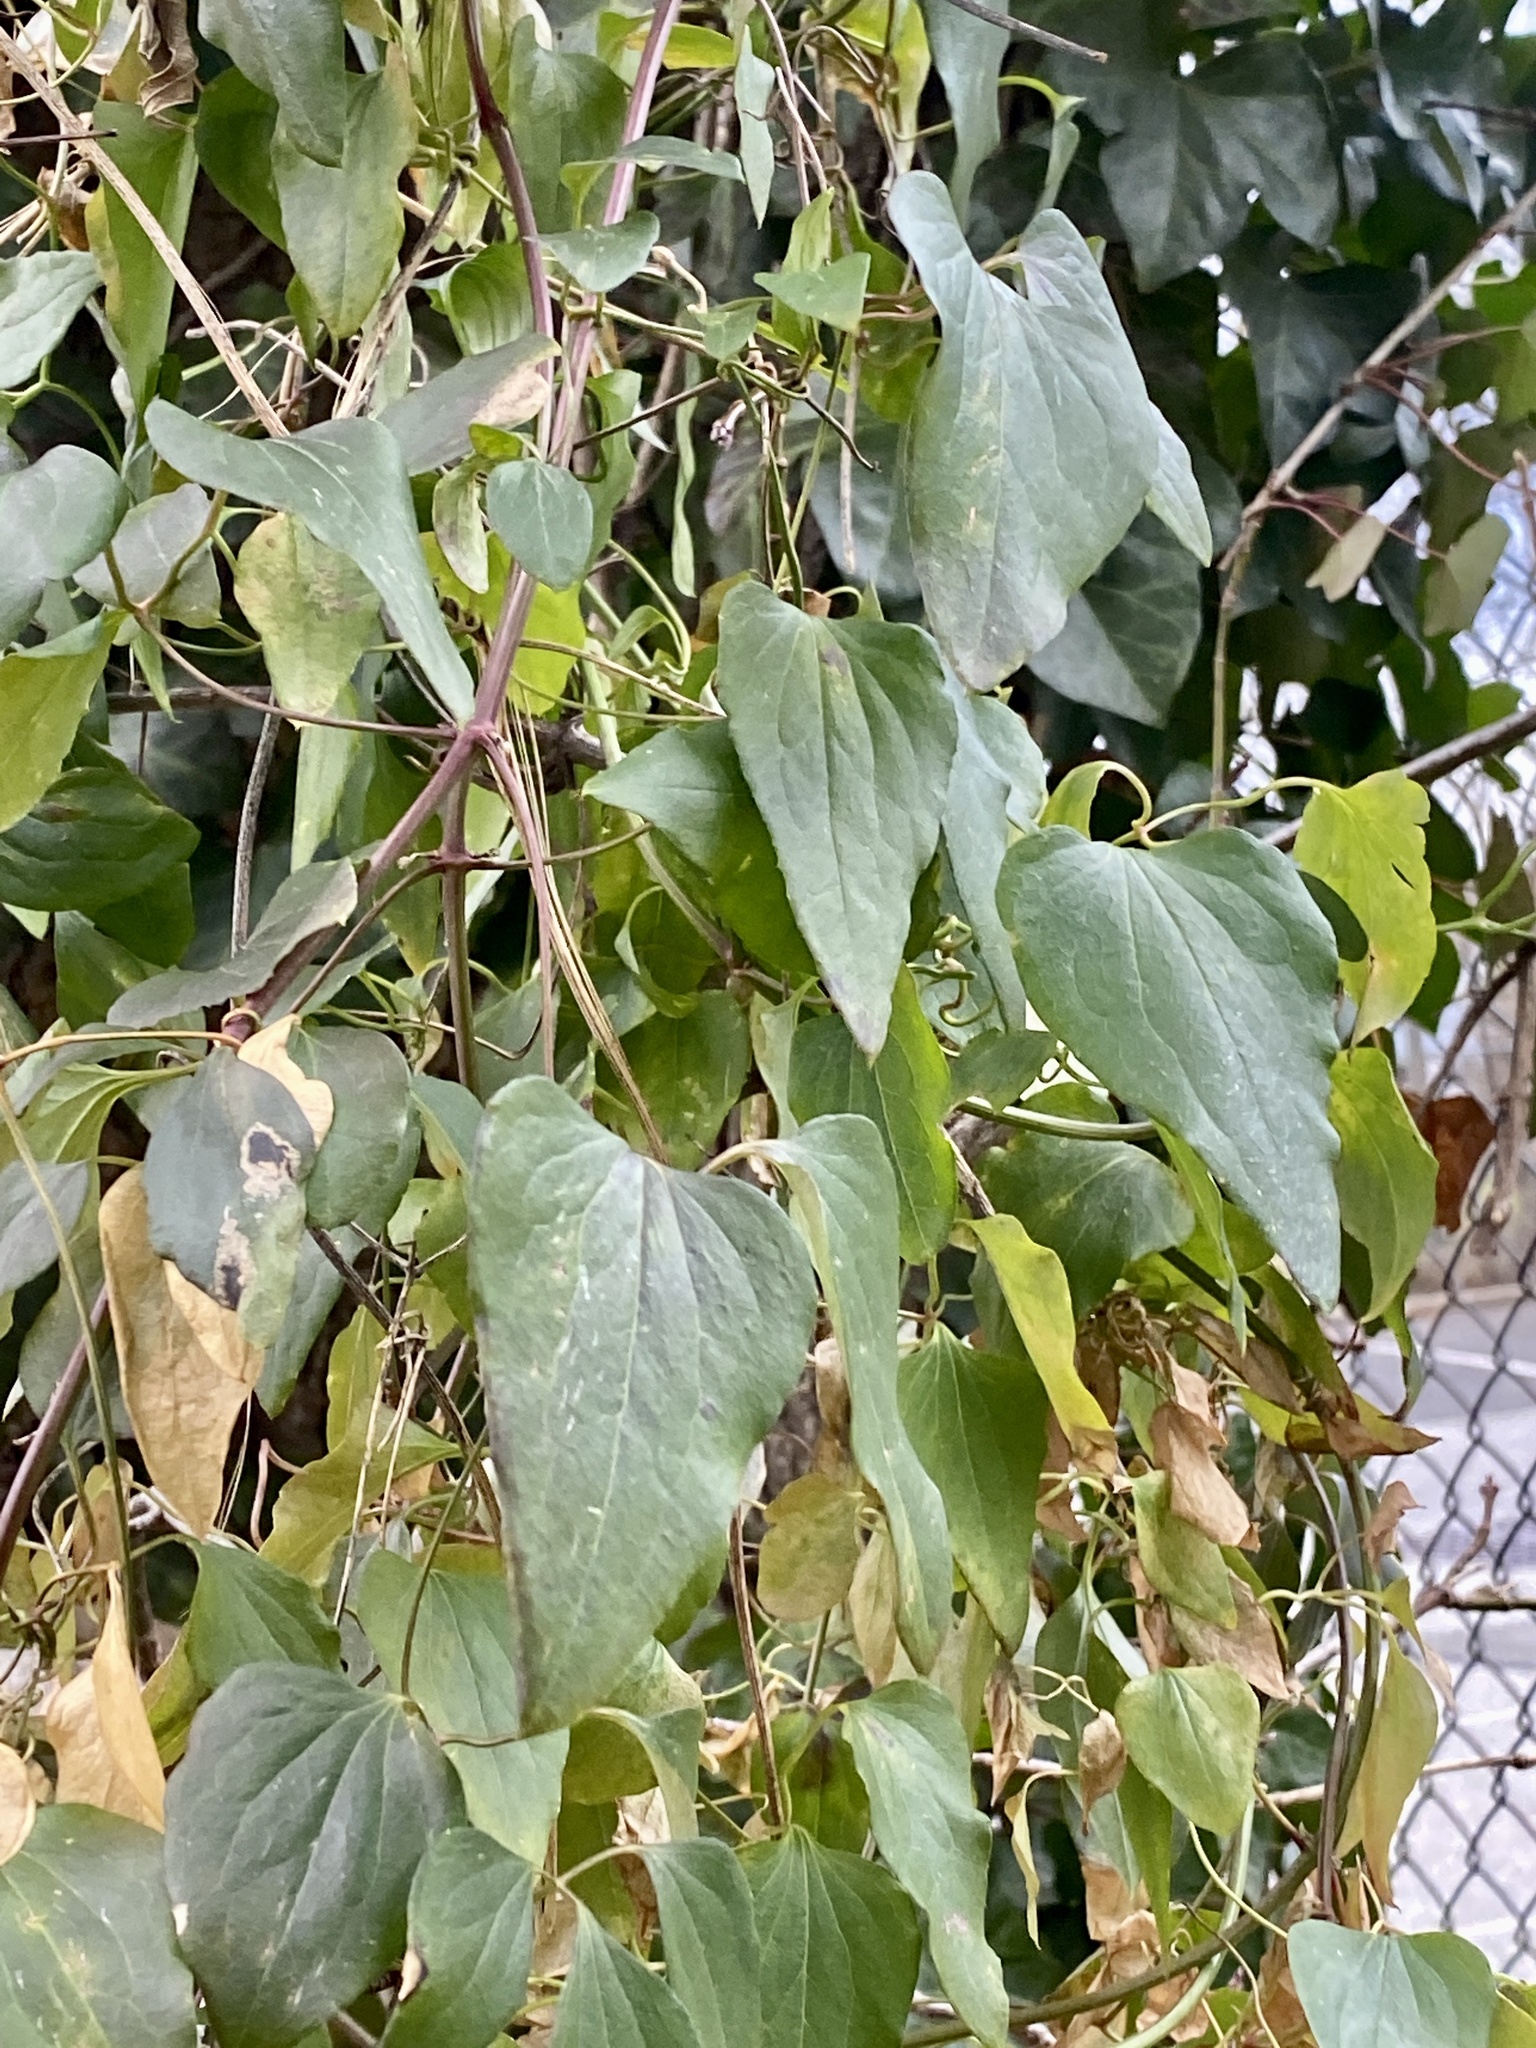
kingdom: Plantae
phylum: Tracheophyta
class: Magnoliopsida
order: Ranunculales
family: Ranunculaceae
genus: Clematis
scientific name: Clematis terniflora
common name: Sweet autumn clematis
